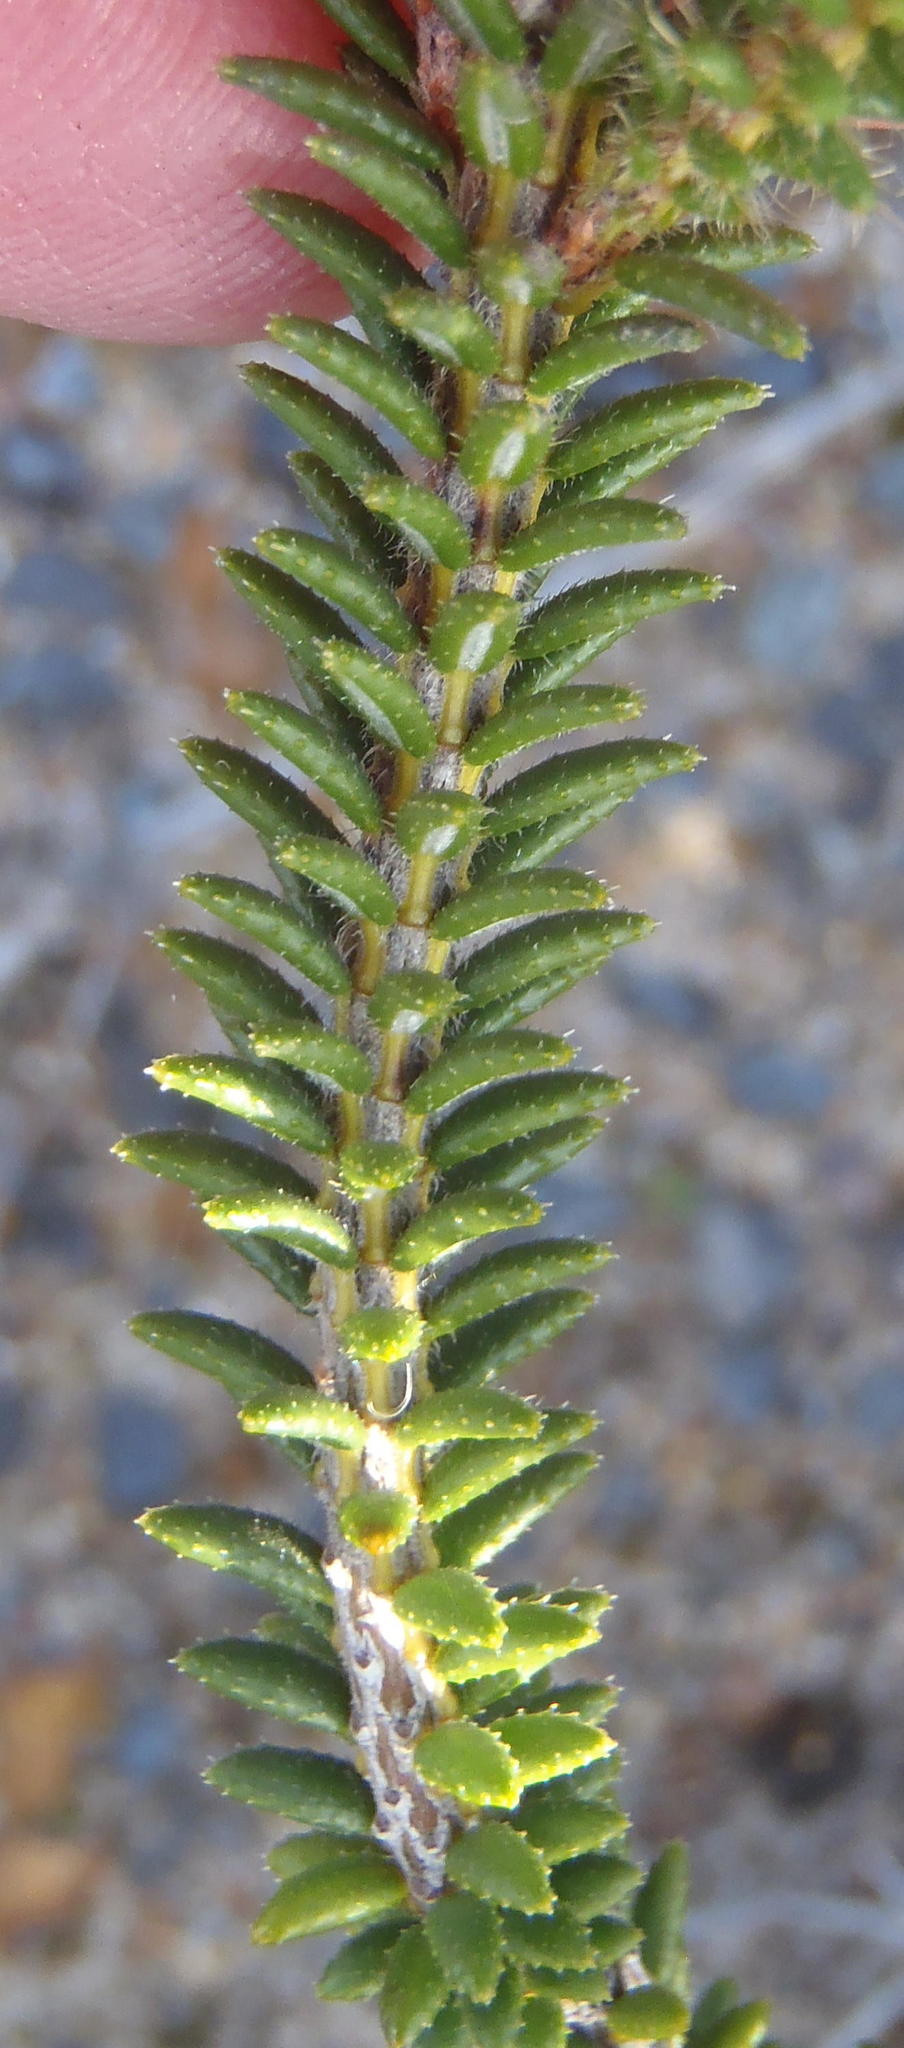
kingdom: Plantae
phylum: Tracheophyta
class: Magnoliopsida
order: Ericales
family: Ericaceae
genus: Erica
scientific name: Erica cerinthoides
